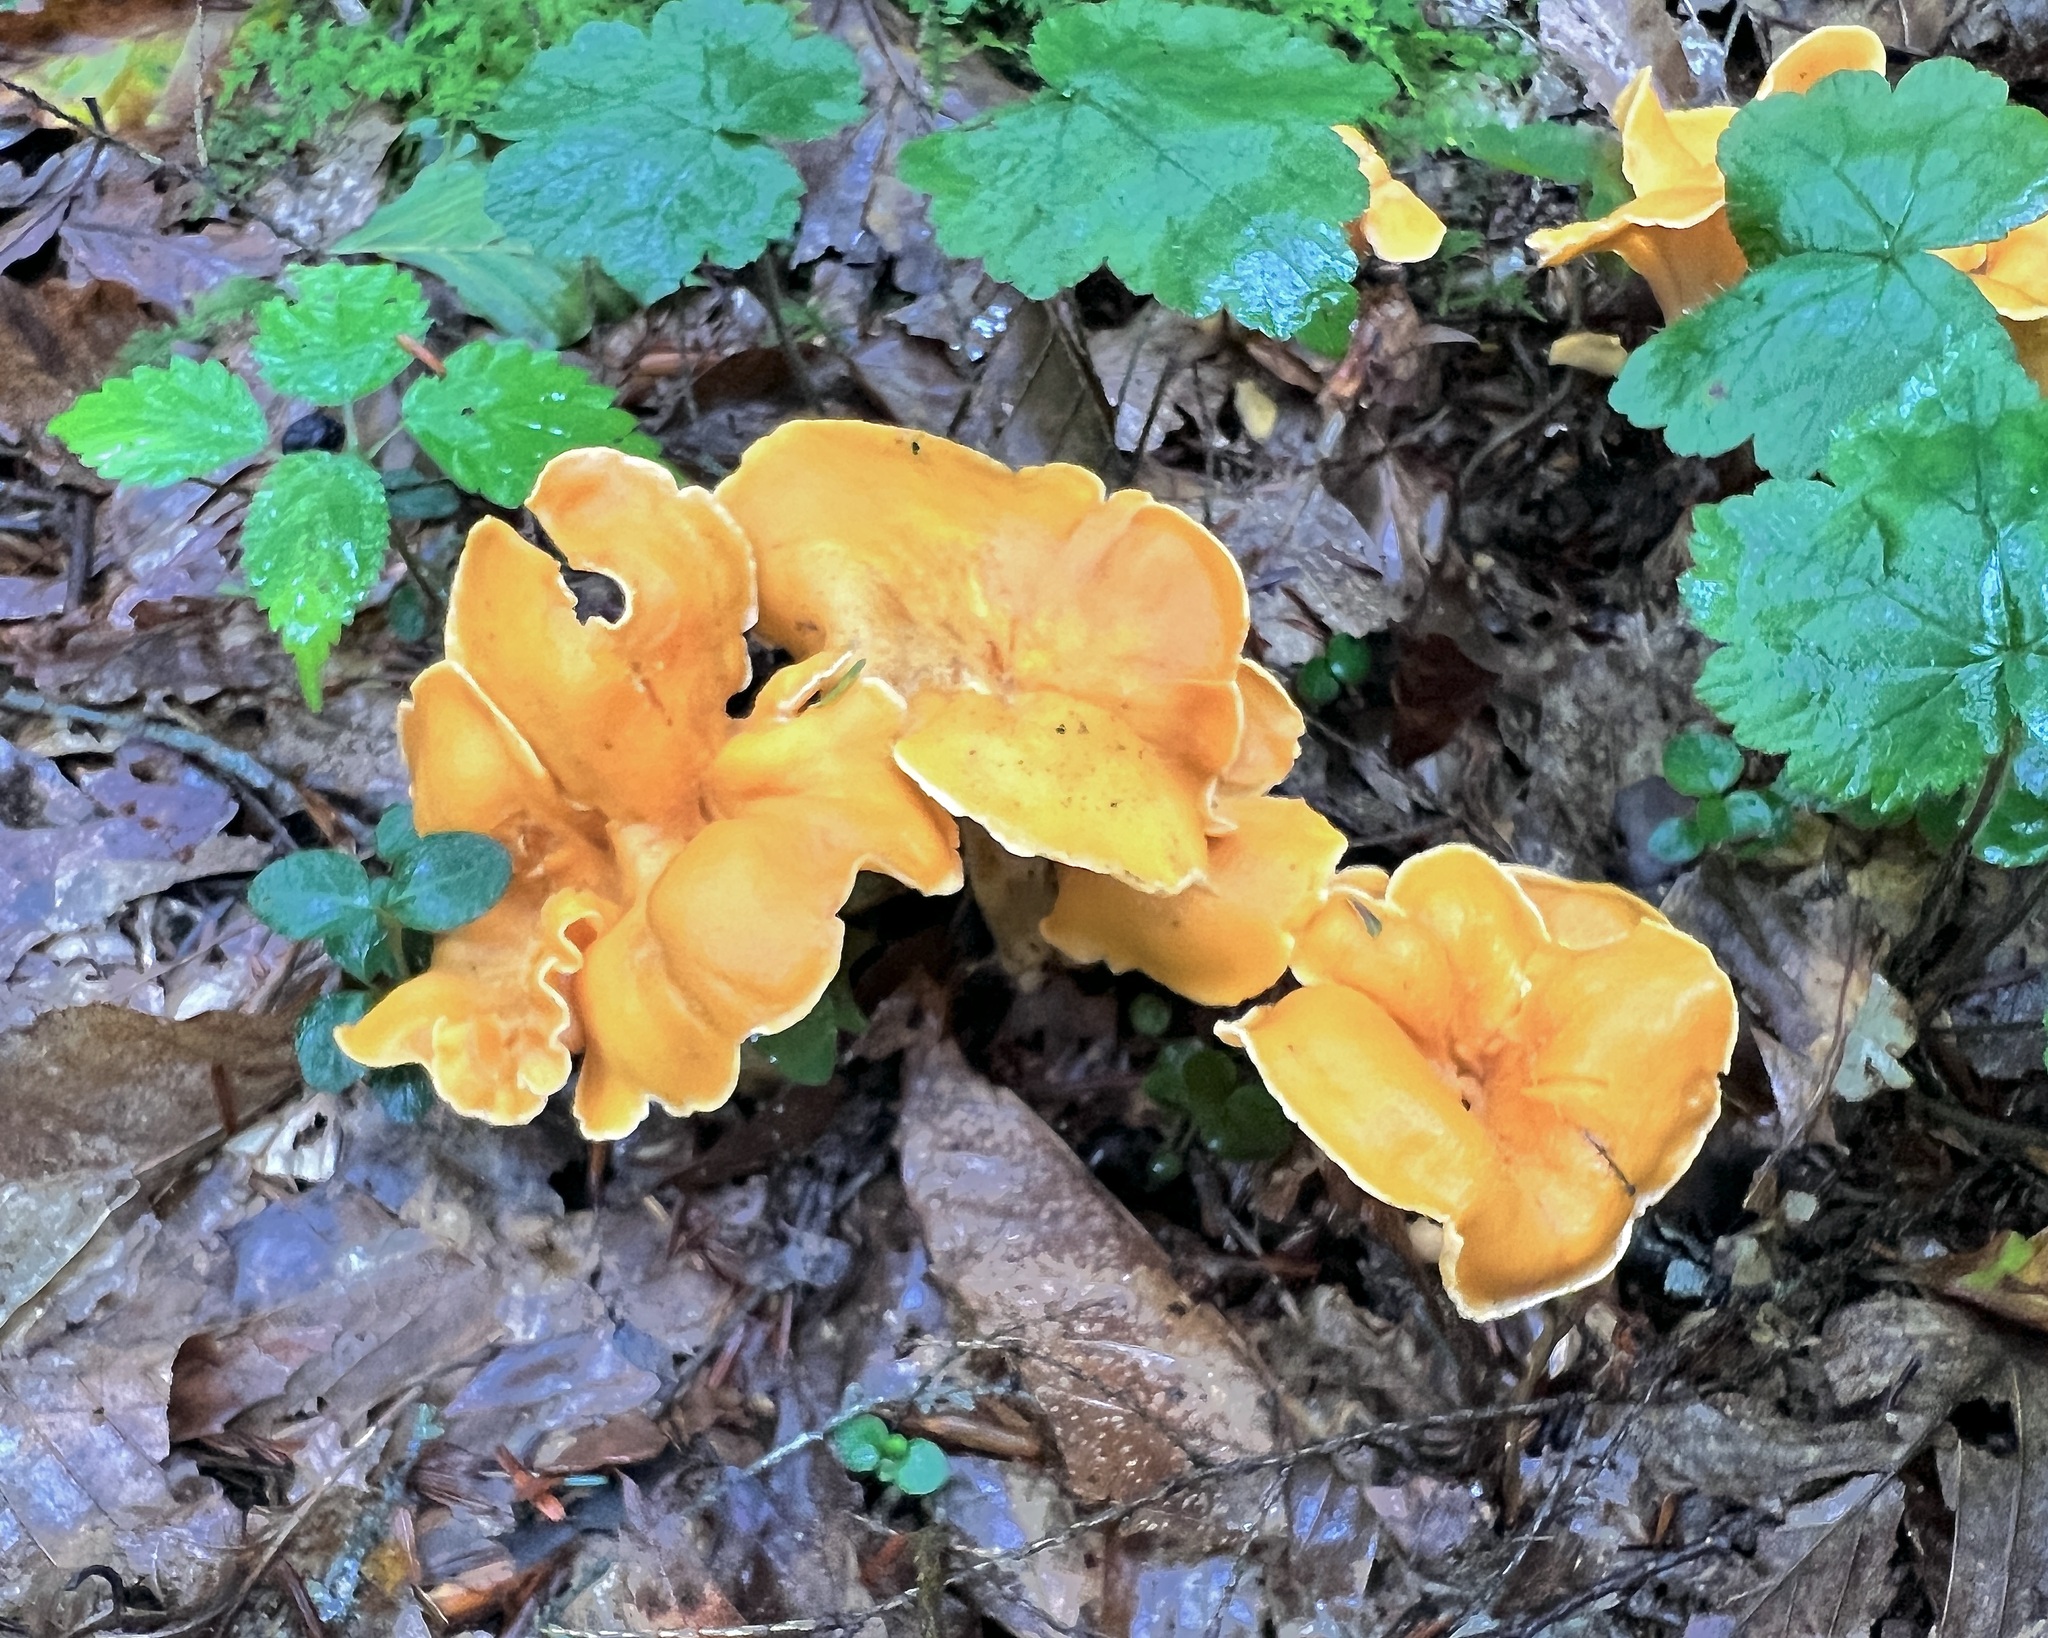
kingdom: Fungi
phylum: Basidiomycota
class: Agaricomycetes
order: Cantharellales
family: Hydnaceae
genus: Cantharellus
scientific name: Cantharellus lateritius
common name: Smooth chanterelle
